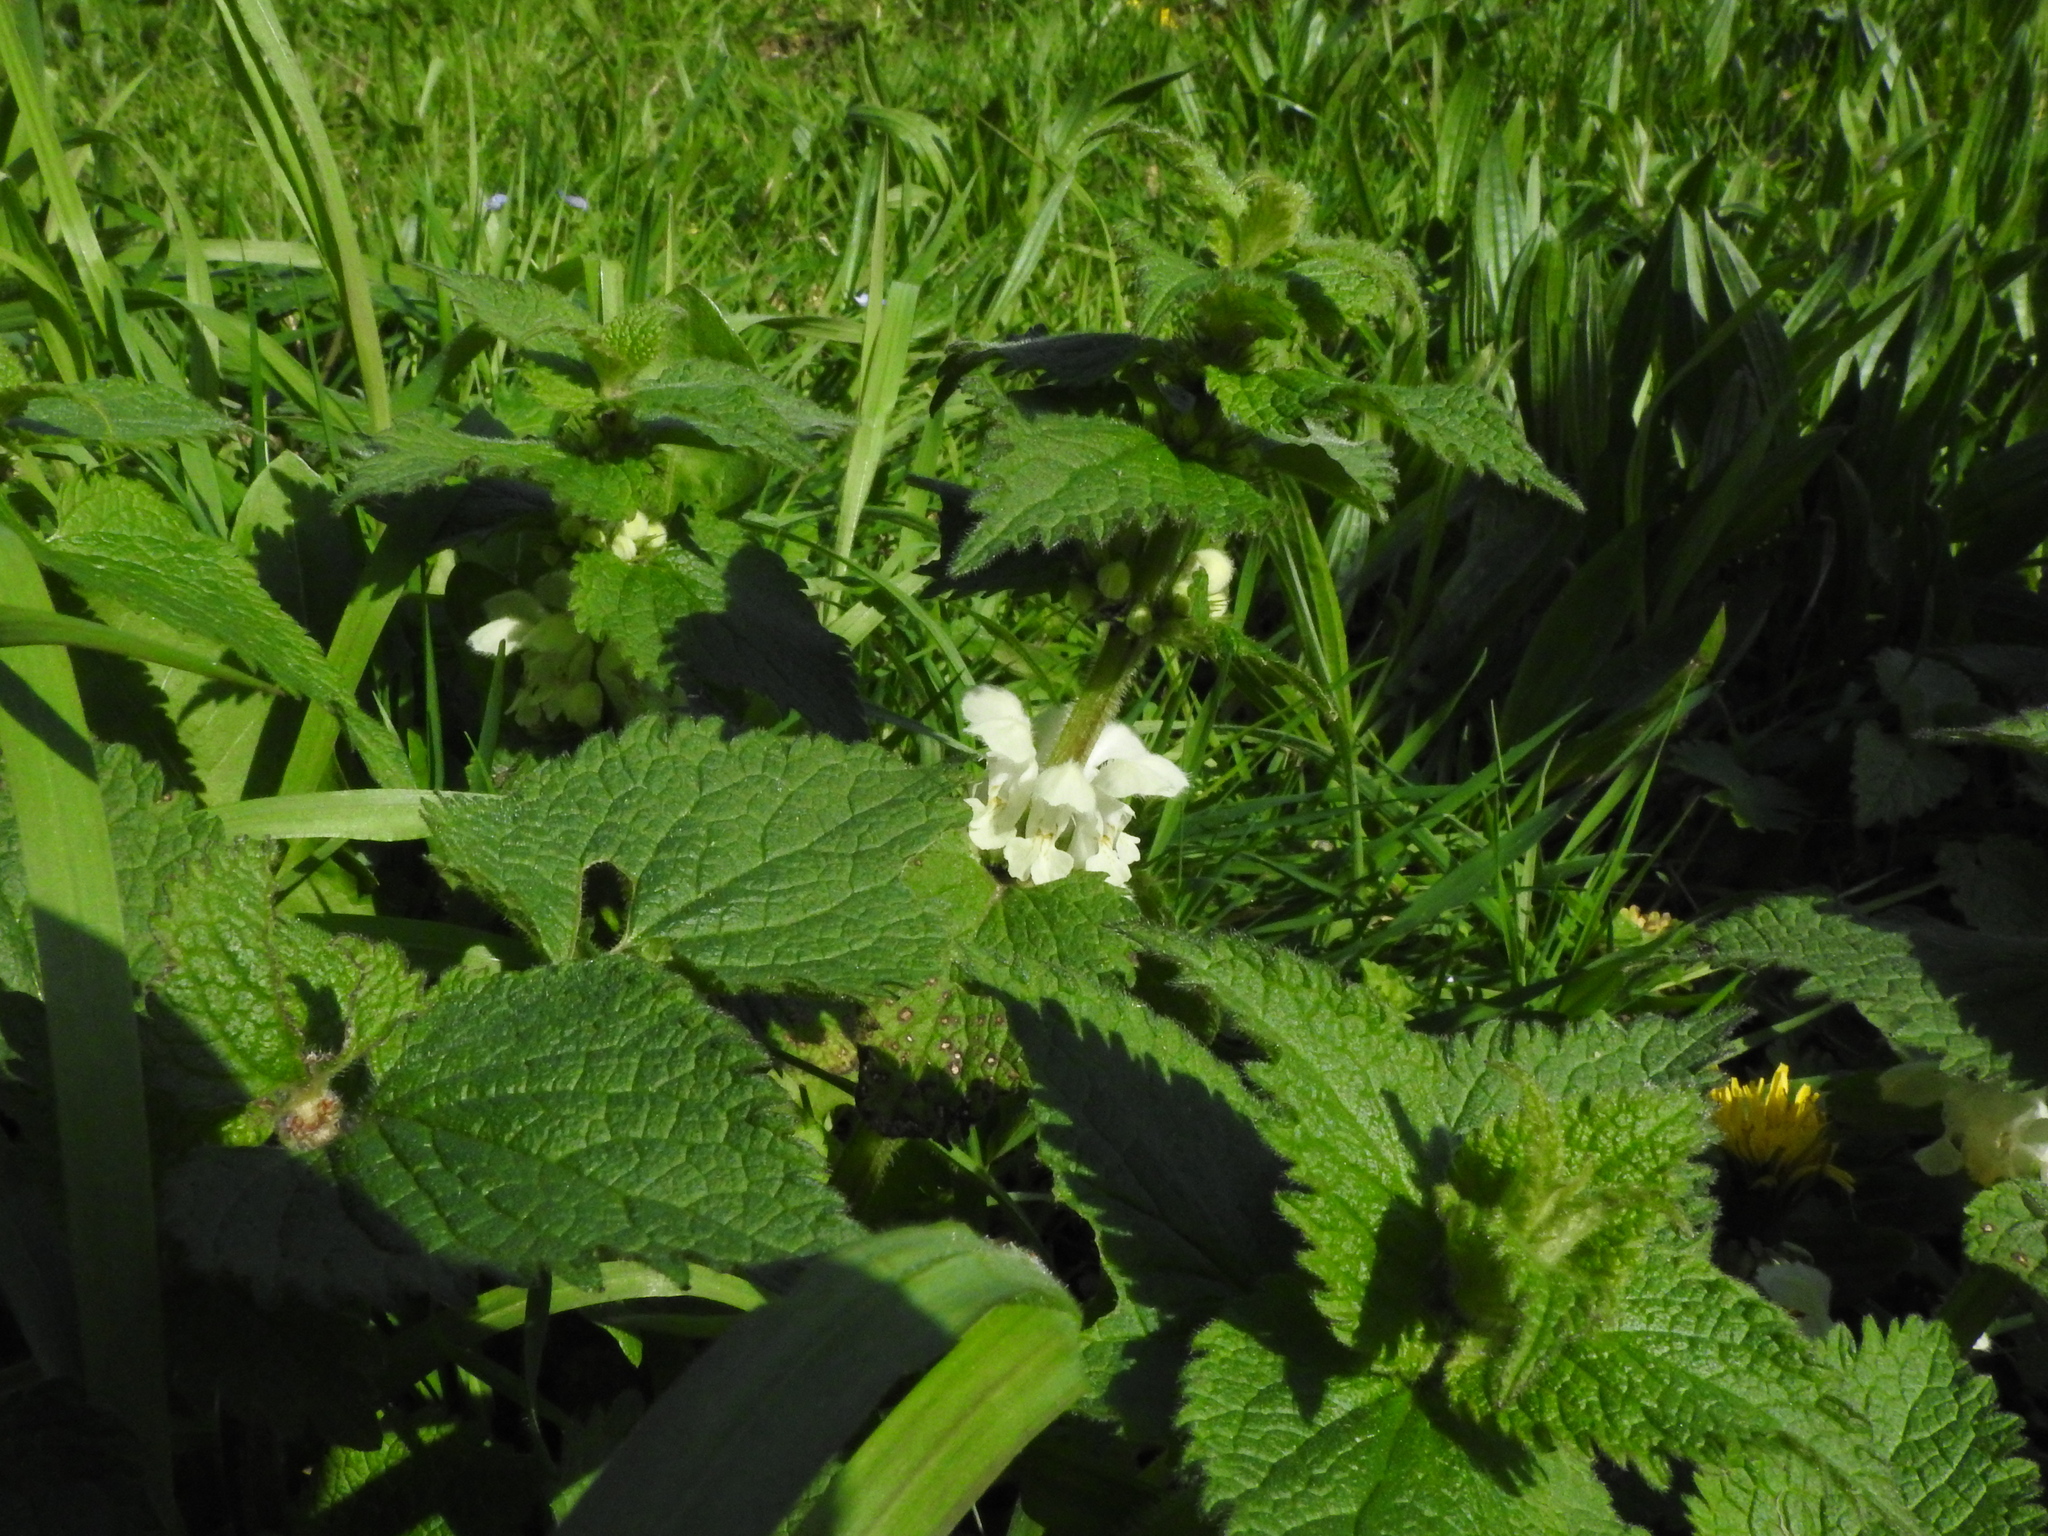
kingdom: Plantae
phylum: Tracheophyta
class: Magnoliopsida
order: Lamiales
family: Lamiaceae
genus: Lamium
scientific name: Lamium album
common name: White dead-nettle
